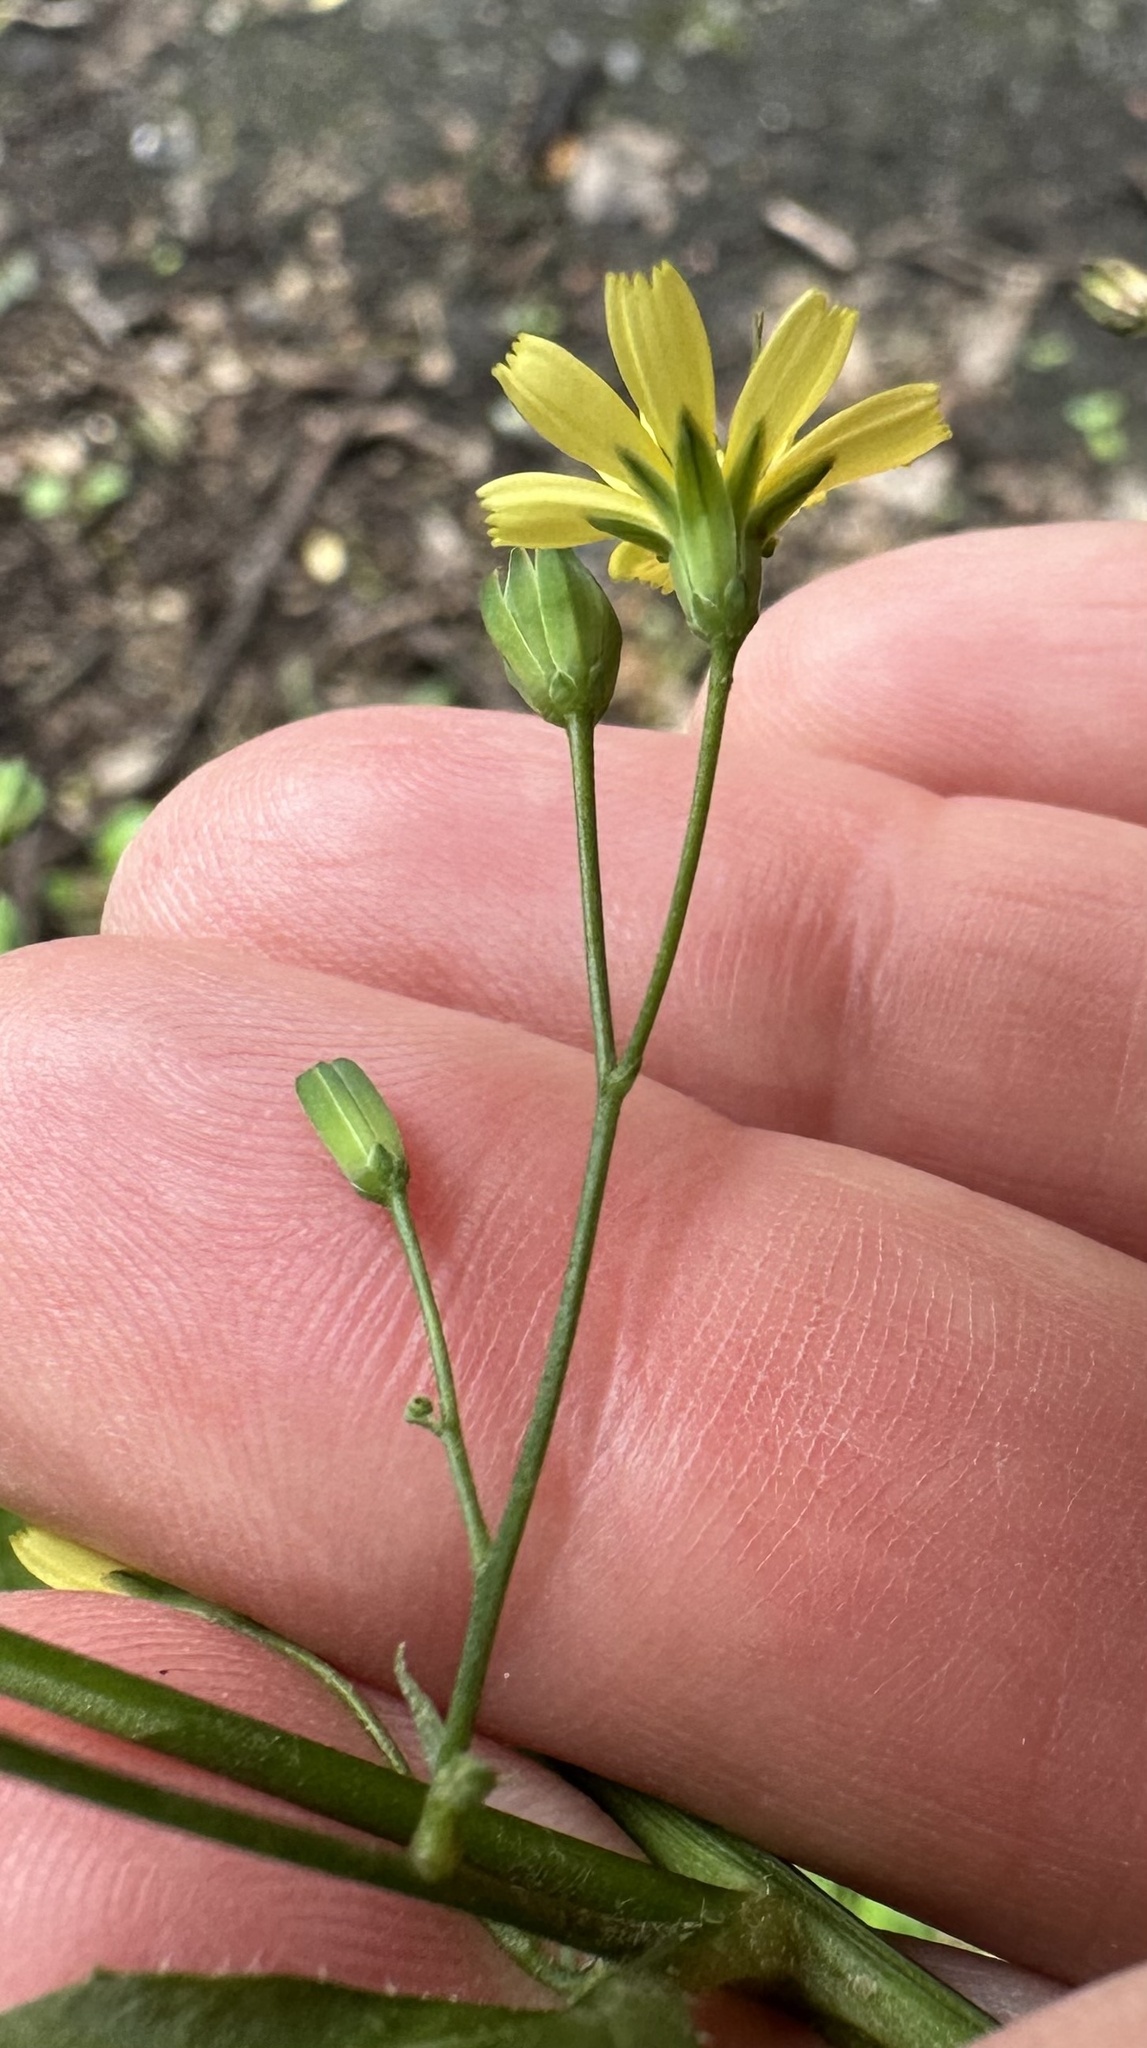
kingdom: Plantae
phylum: Tracheophyta
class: Magnoliopsida
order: Asterales
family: Asteraceae
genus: Lapsana
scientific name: Lapsana communis
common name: Nipplewort
